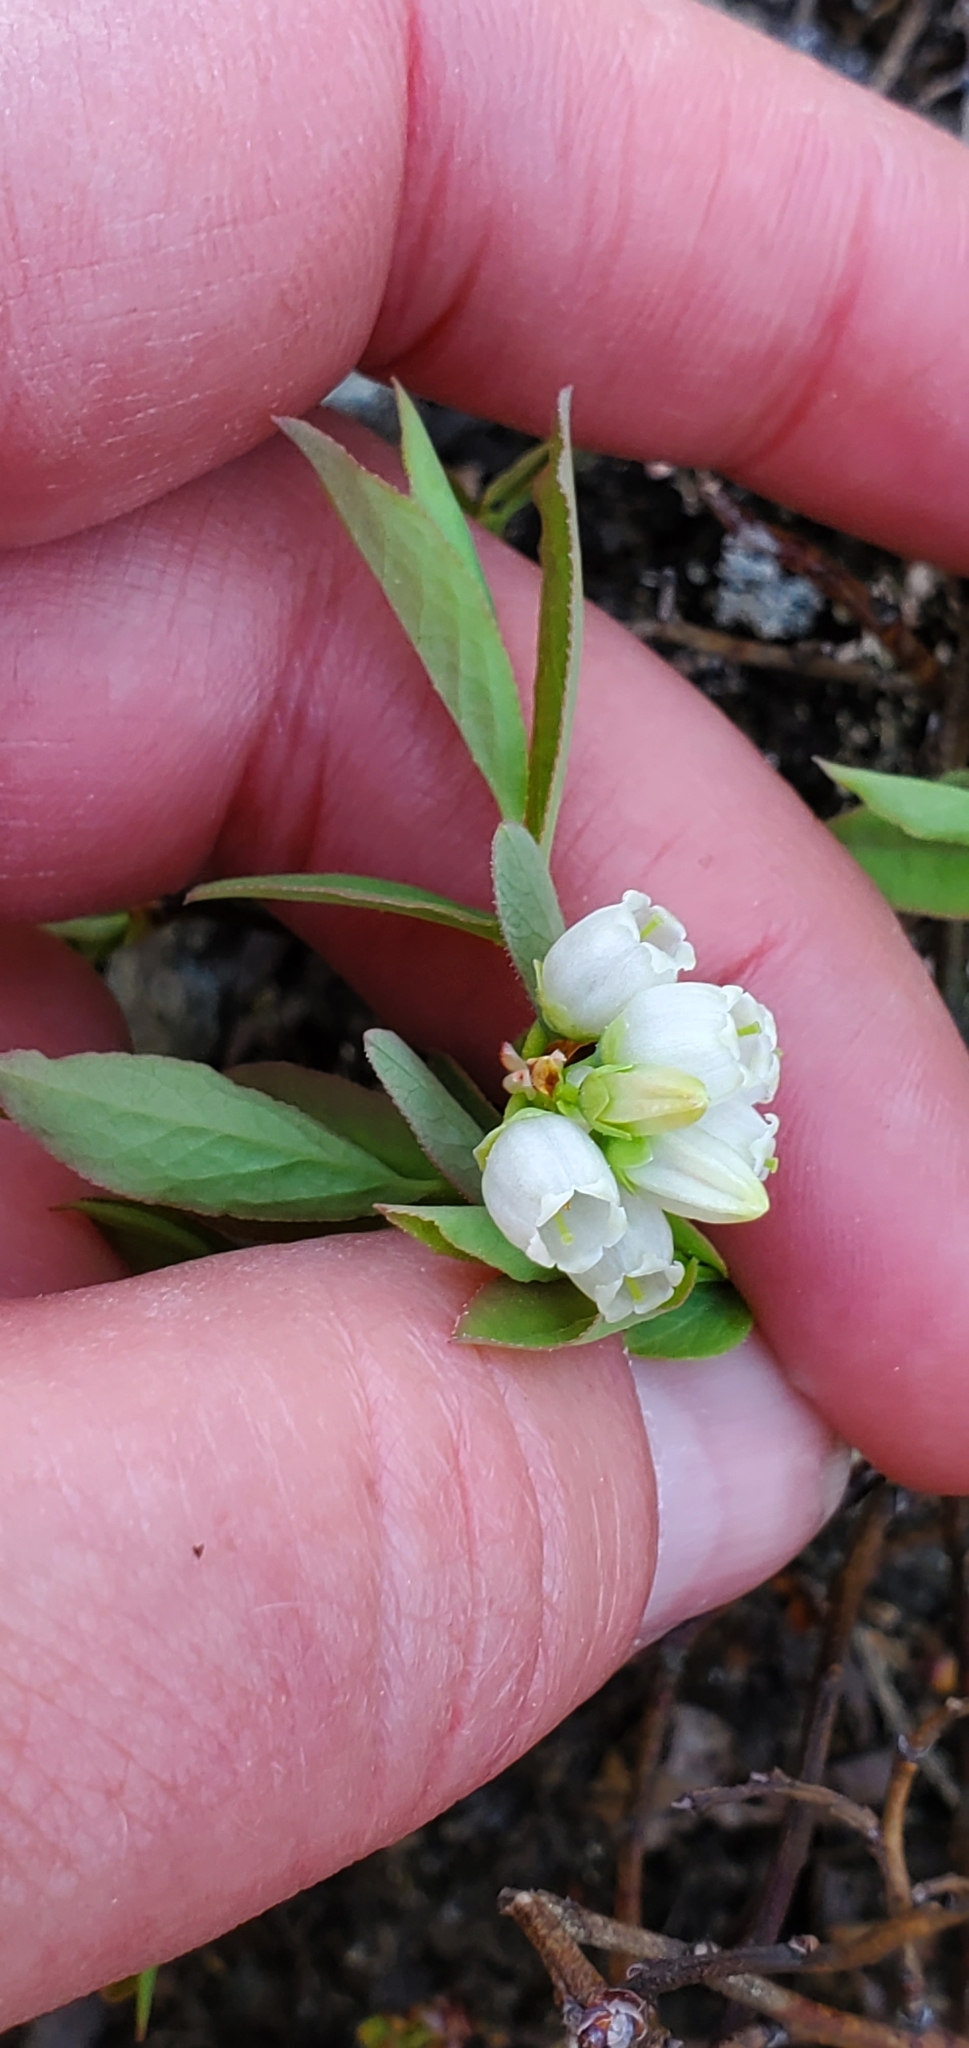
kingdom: Plantae
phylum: Tracheophyta
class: Magnoliopsida
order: Ericales
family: Ericaceae
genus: Vaccinium
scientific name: Vaccinium angustifolium
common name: Early lowbush blueberry
